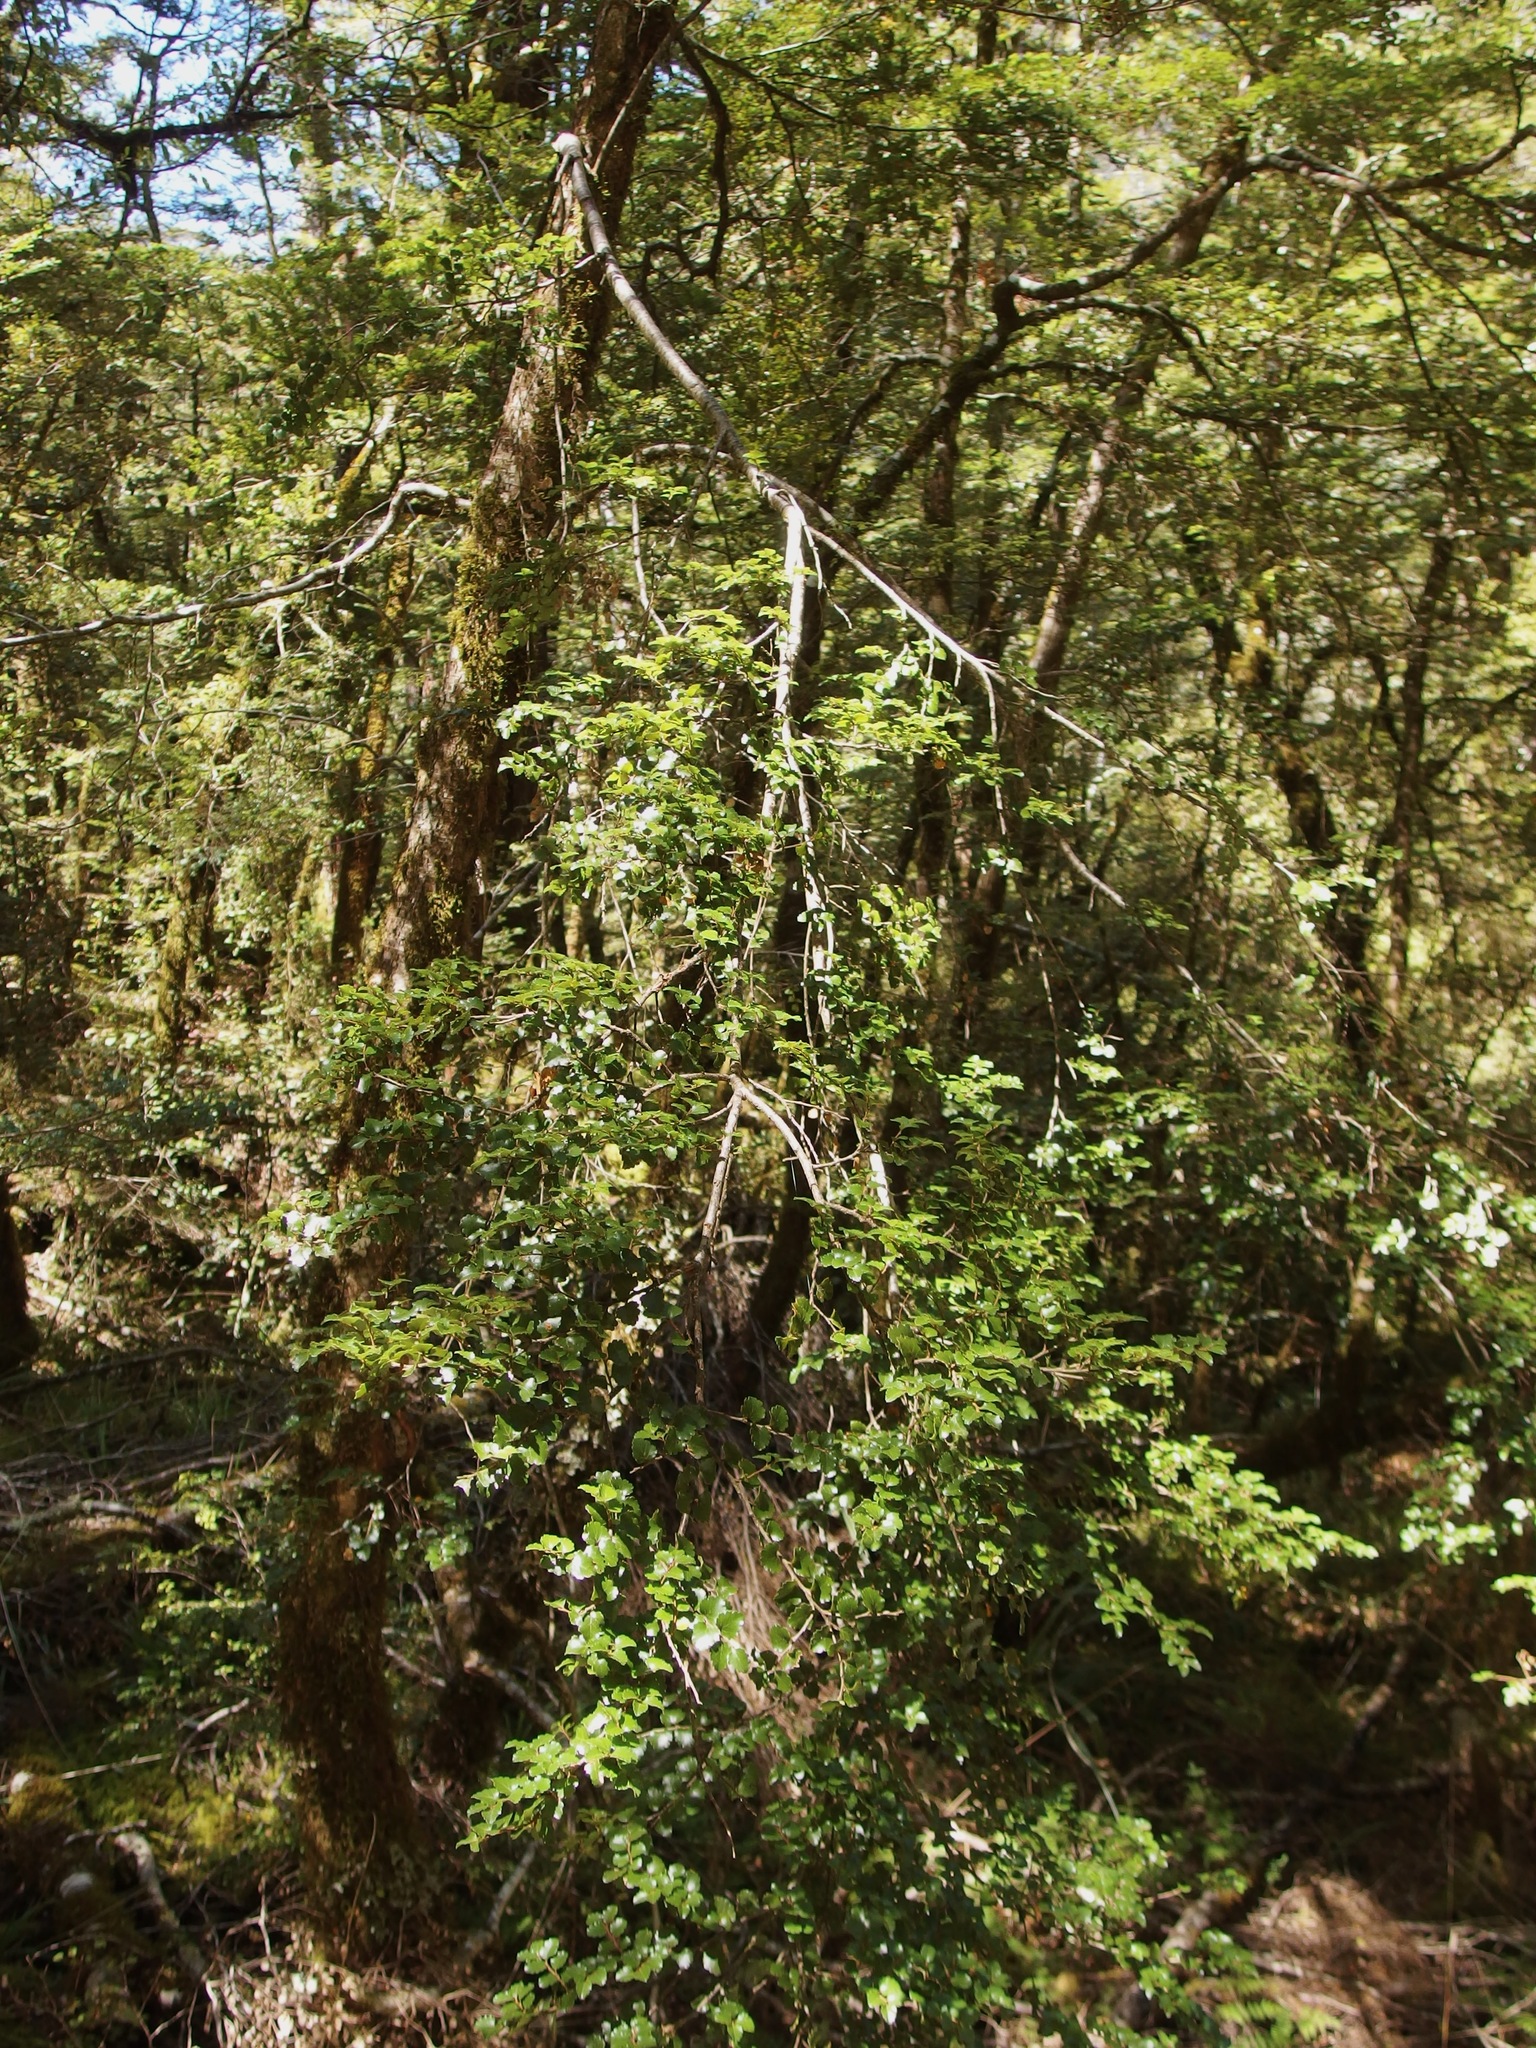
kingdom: Plantae
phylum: Tracheophyta
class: Magnoliopsida
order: Fagales
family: Nothofagaceae
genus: Nothofagus
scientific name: Nothofagus menziesii
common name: Silver beech
